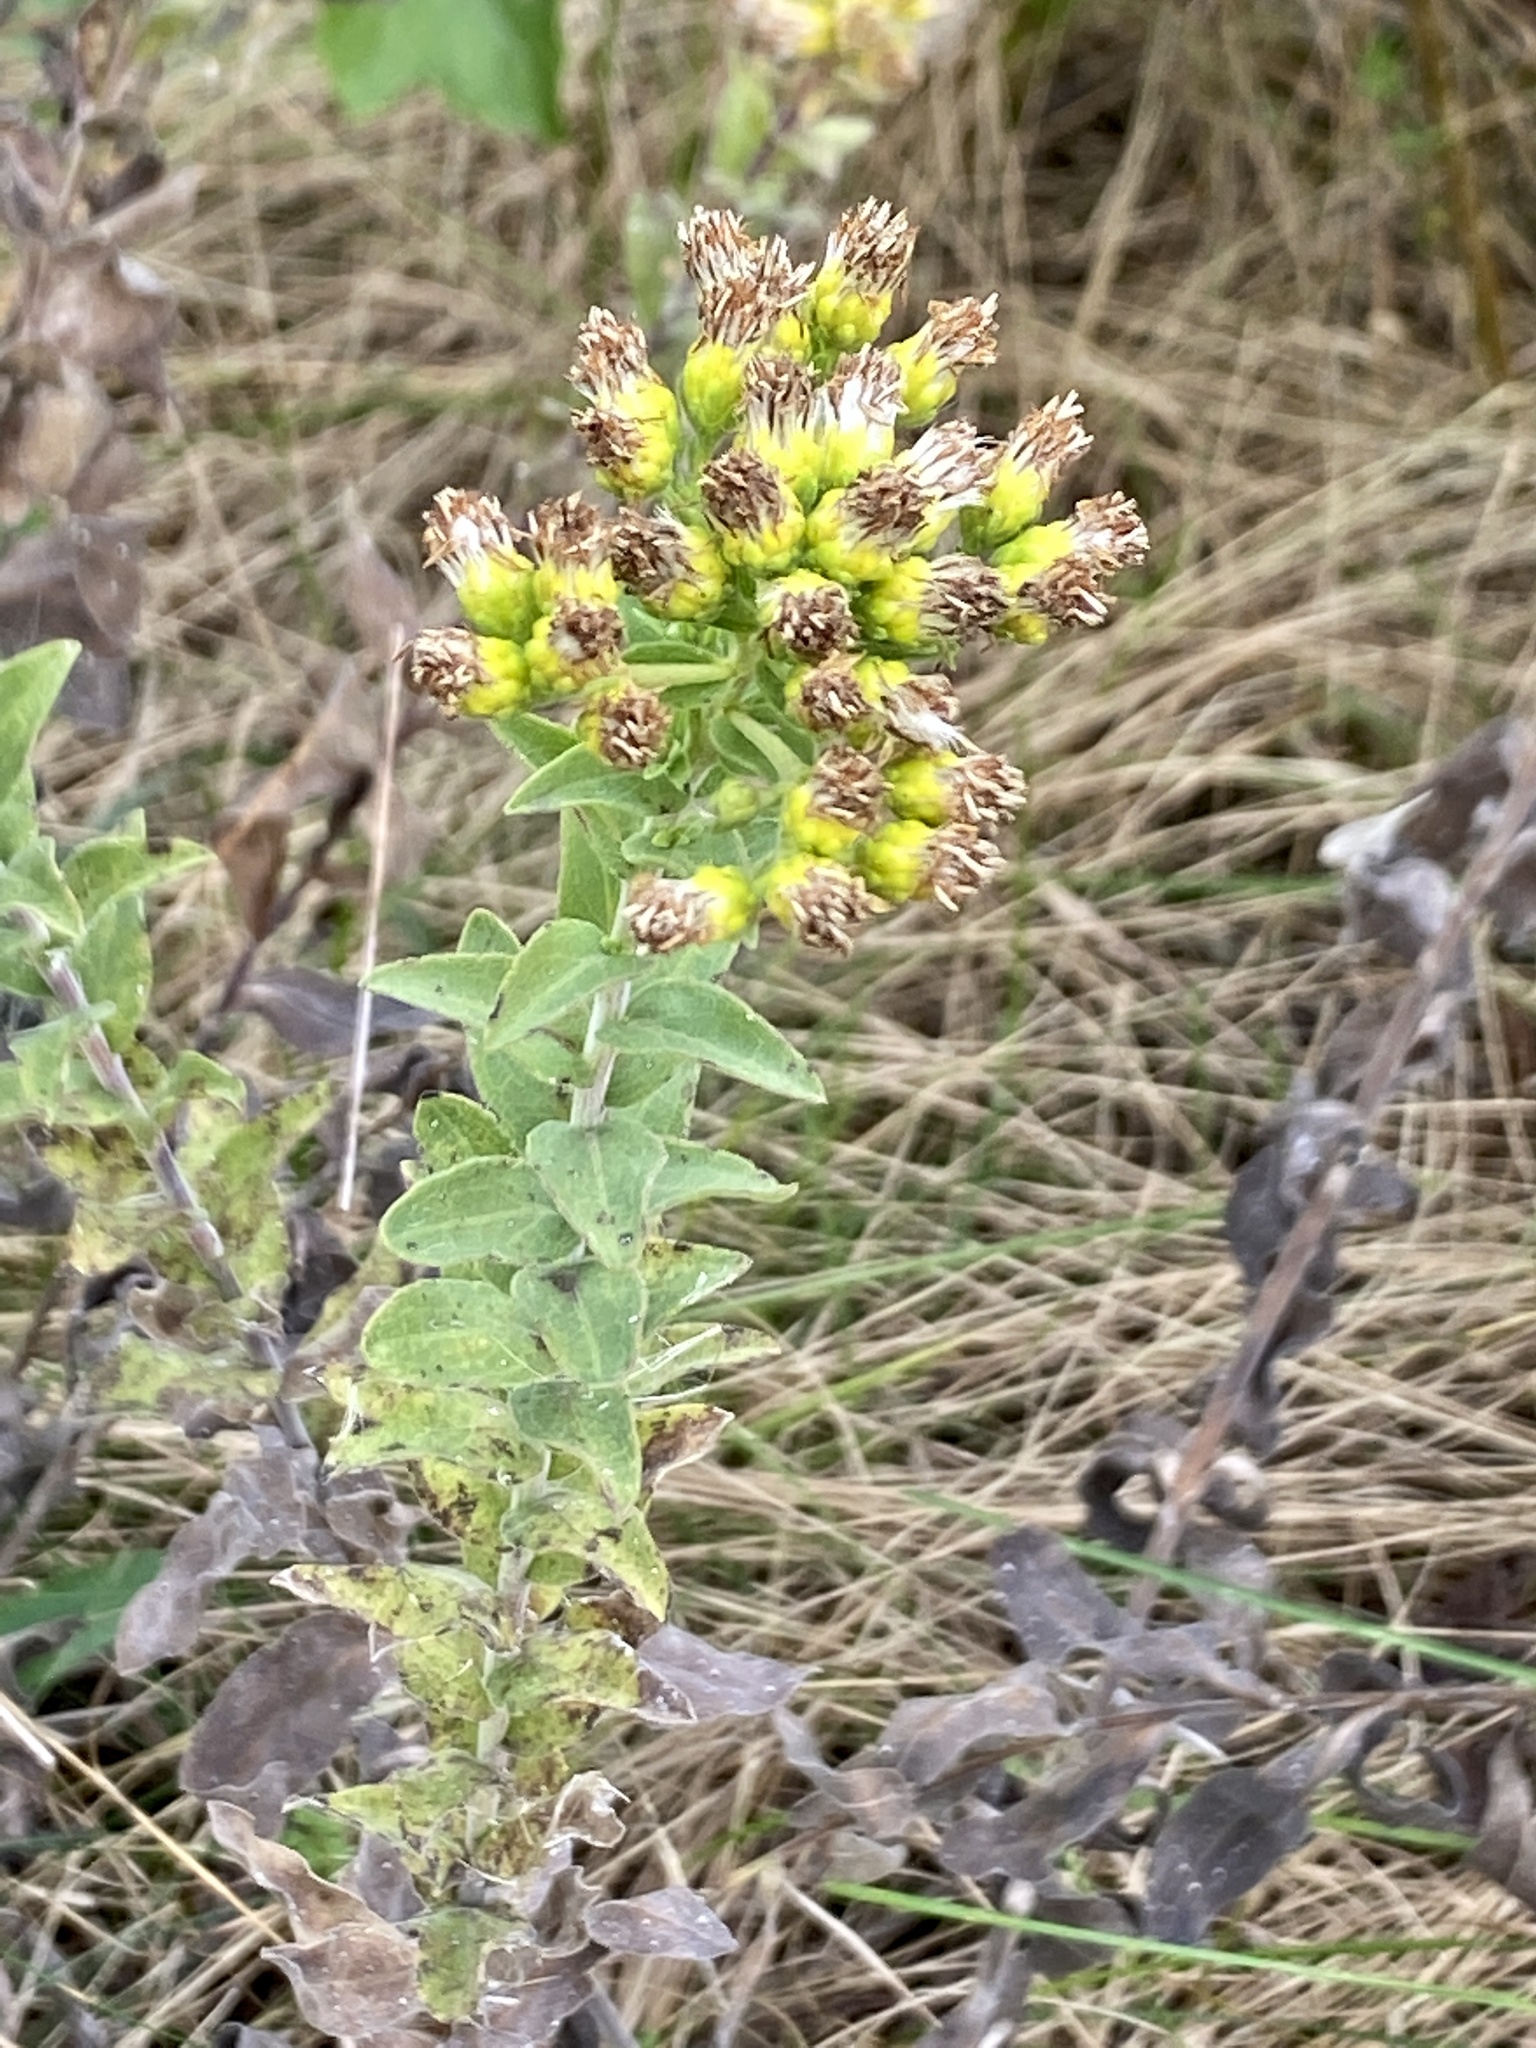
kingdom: Plantae
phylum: Tracheophyta
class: Magnoliopsida
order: Asterales
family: Asteraceae
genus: Solidago
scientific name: Solidago rigida
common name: Rigid goldenrod
